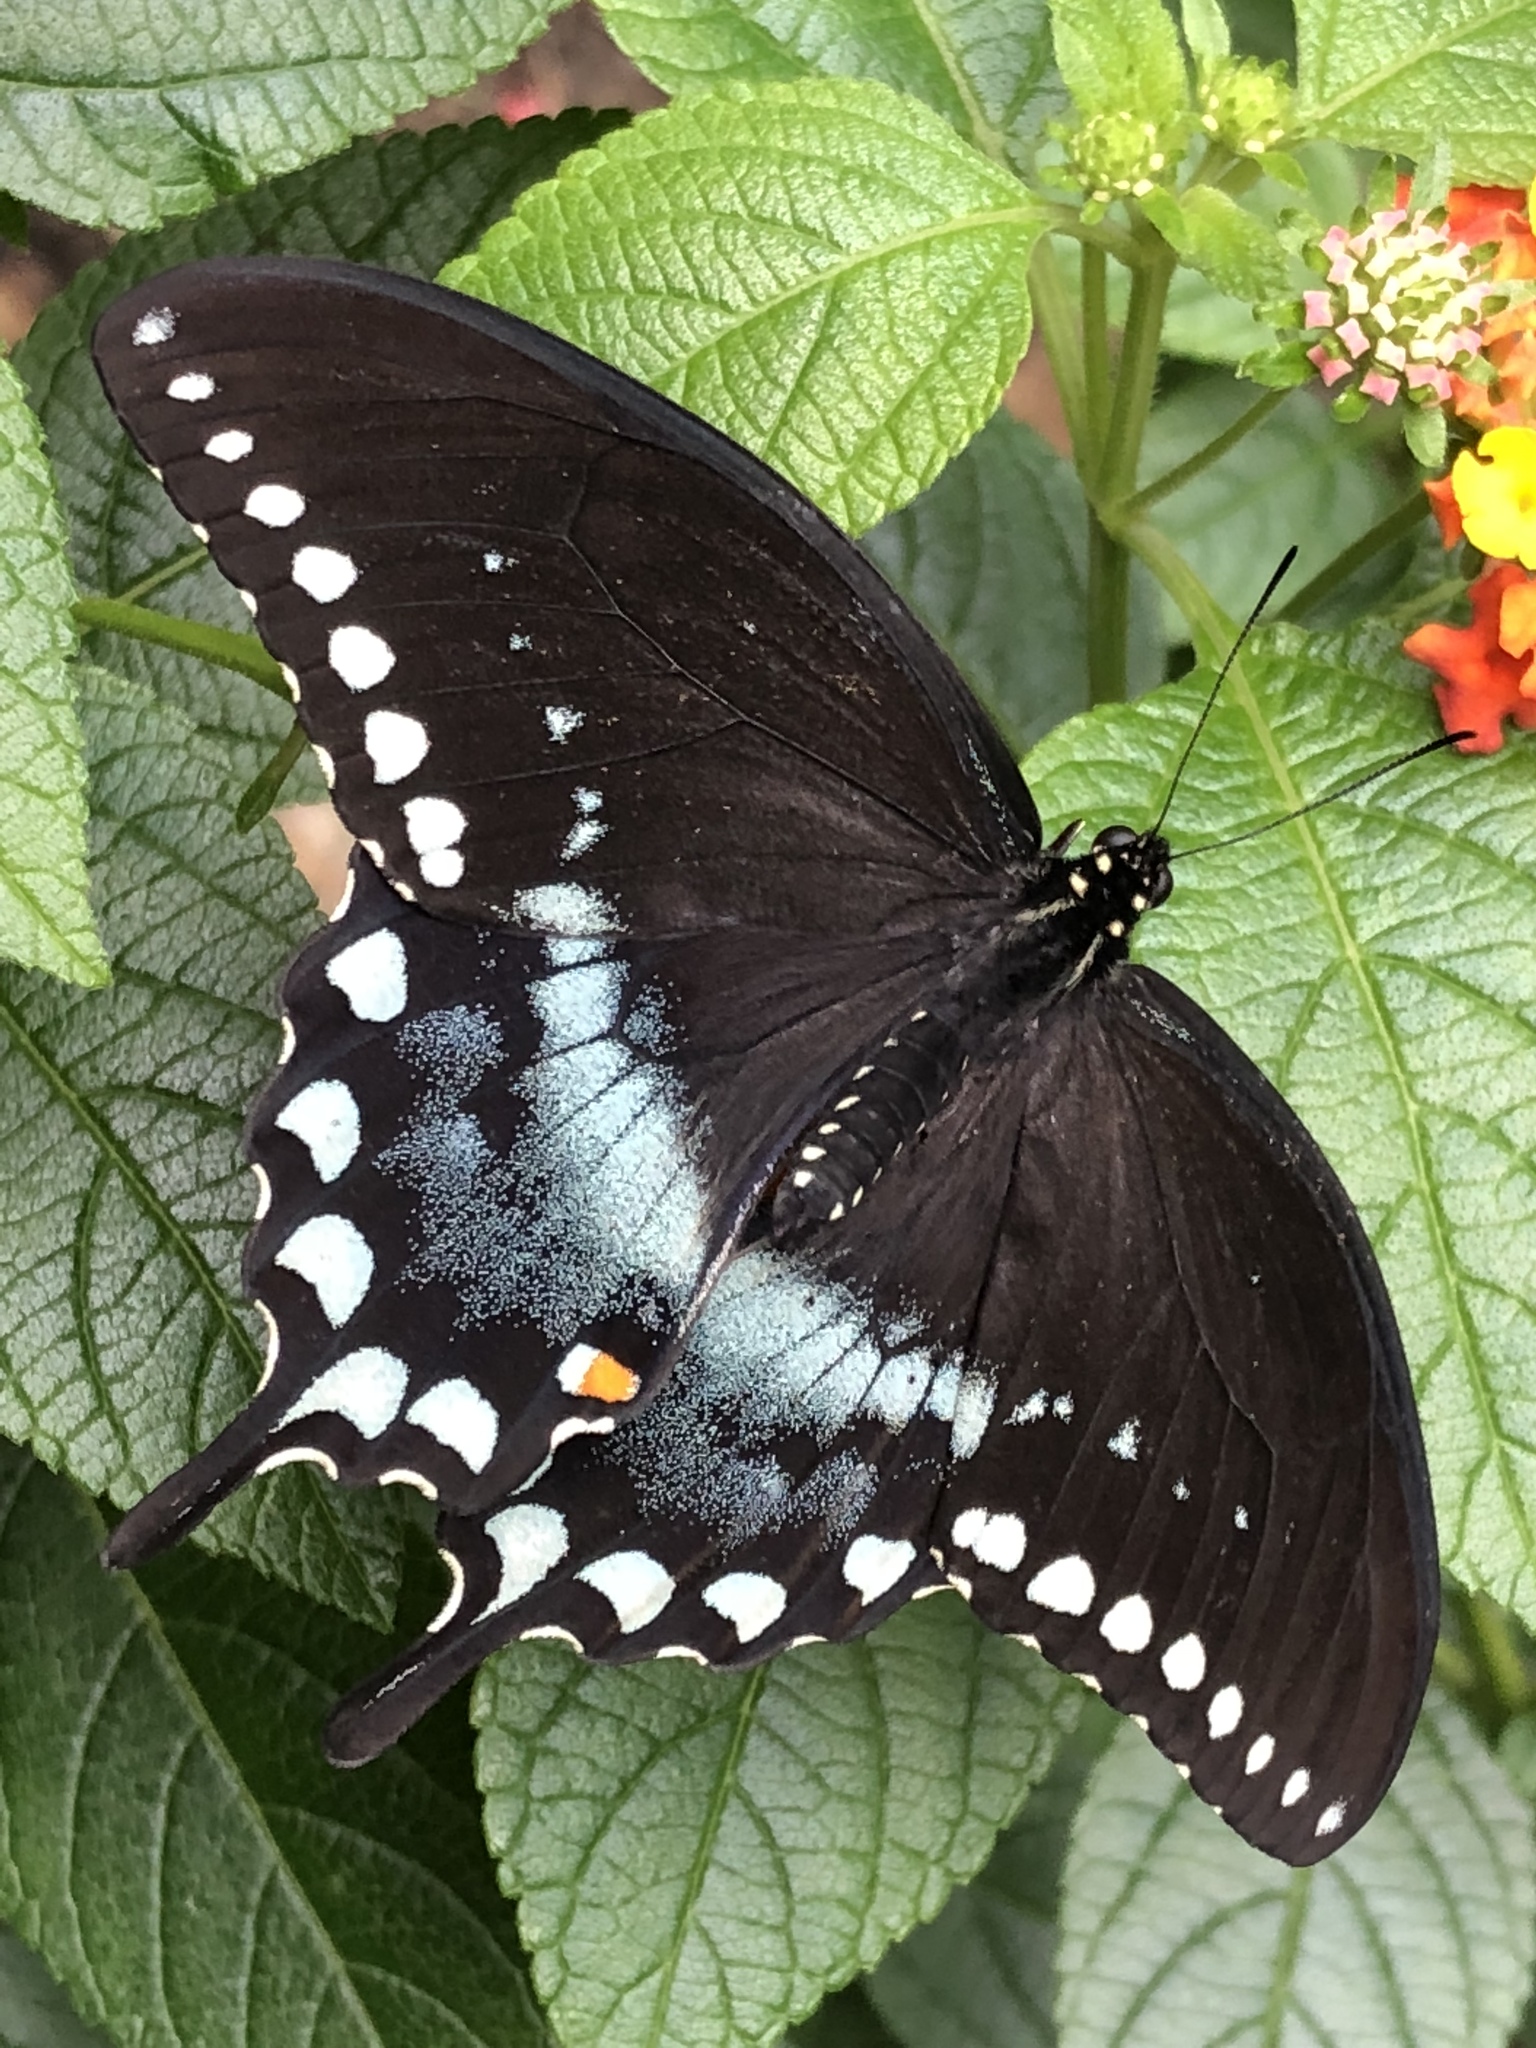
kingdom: Animalia
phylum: Arthropoda
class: Insecta
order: Lepidoptera
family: Papilionidae
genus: Papilio
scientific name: Papilio troilus
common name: Spicebush swallowtail
